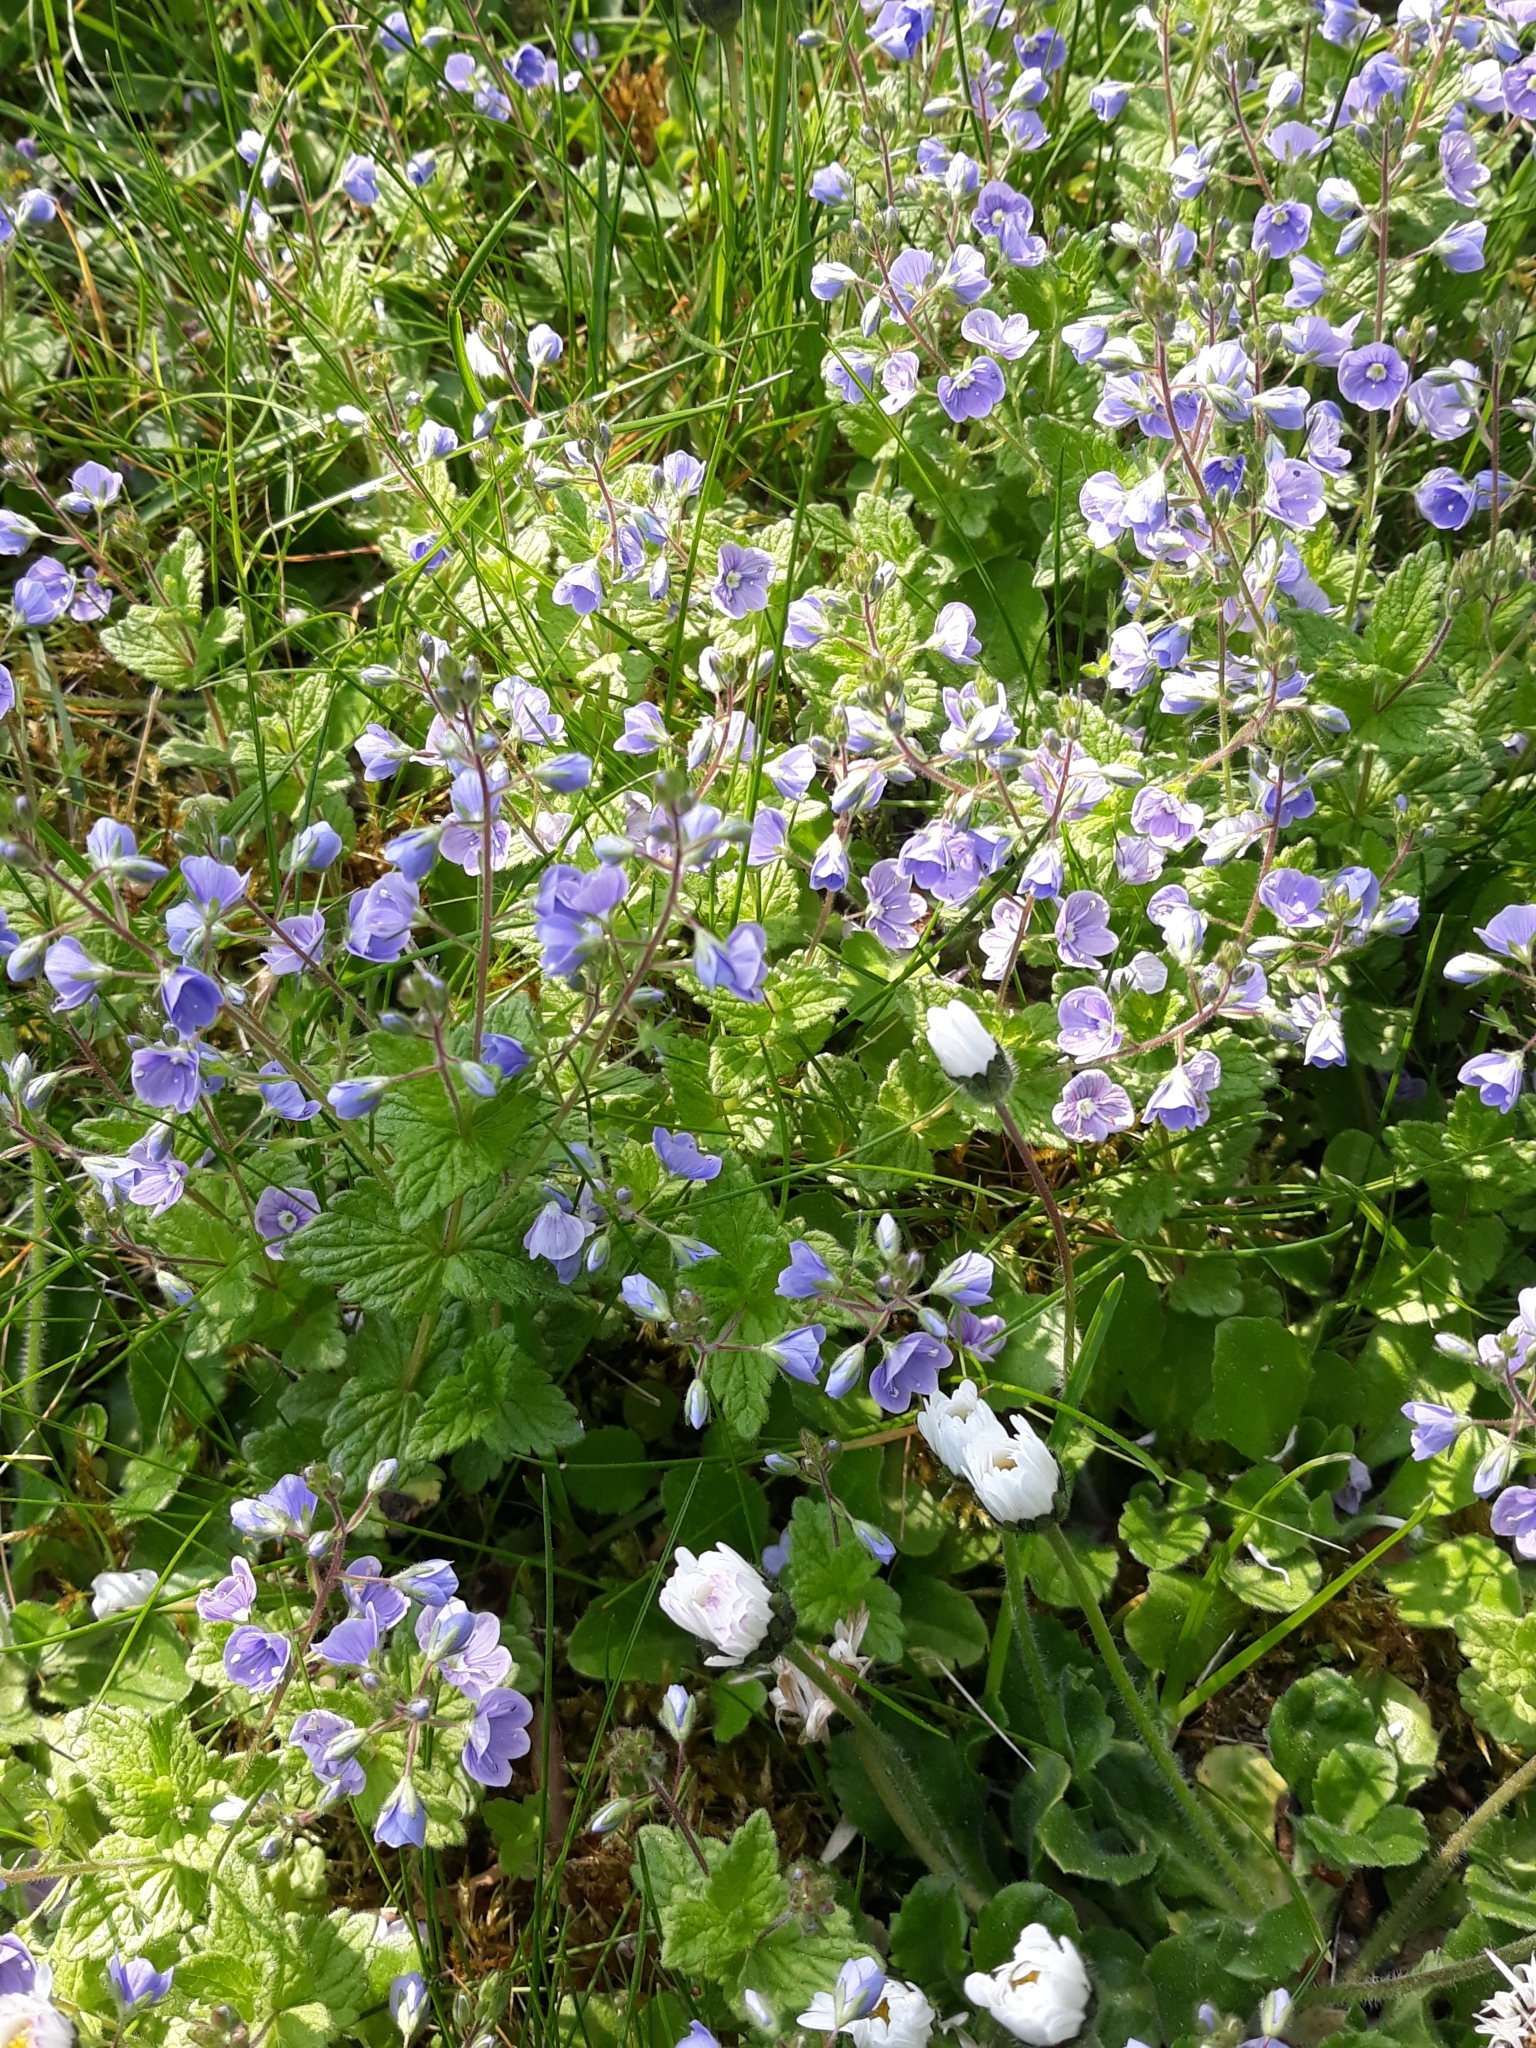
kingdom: Plantae
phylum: Tracheophyta
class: Magnoliopsida
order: Lamiales
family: Plantaginaceae
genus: Veronica
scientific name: Veronica chamaedrys
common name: Germander speedwell
